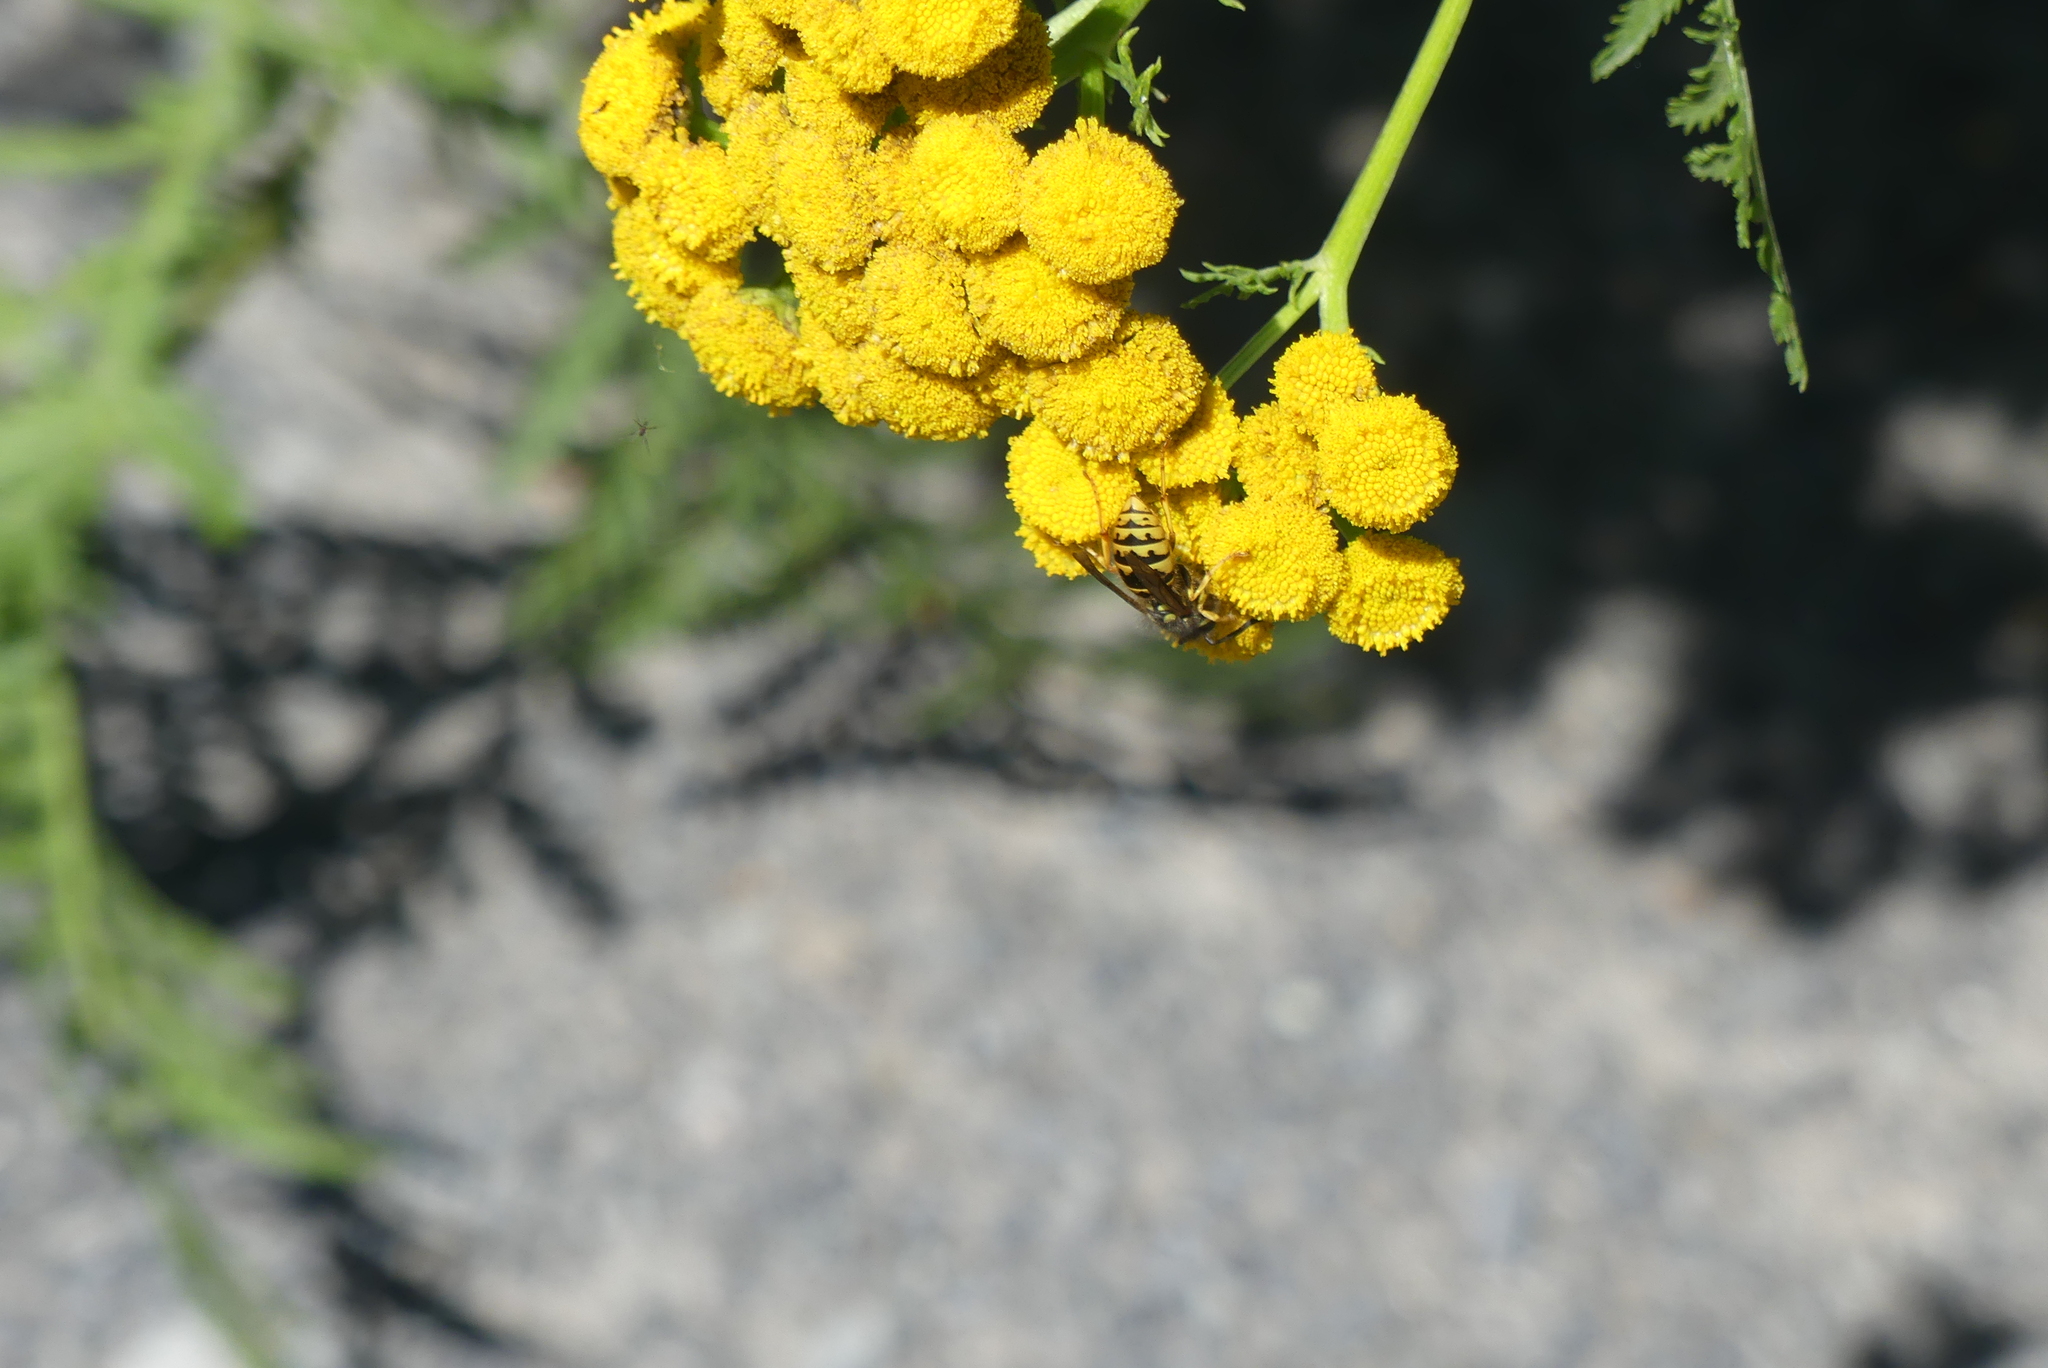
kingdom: Animalia
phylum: Arthropoda
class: Insecta
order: Hymenoptera
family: Vespidae
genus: Vespula
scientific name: Vespula germanica
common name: German wasp
